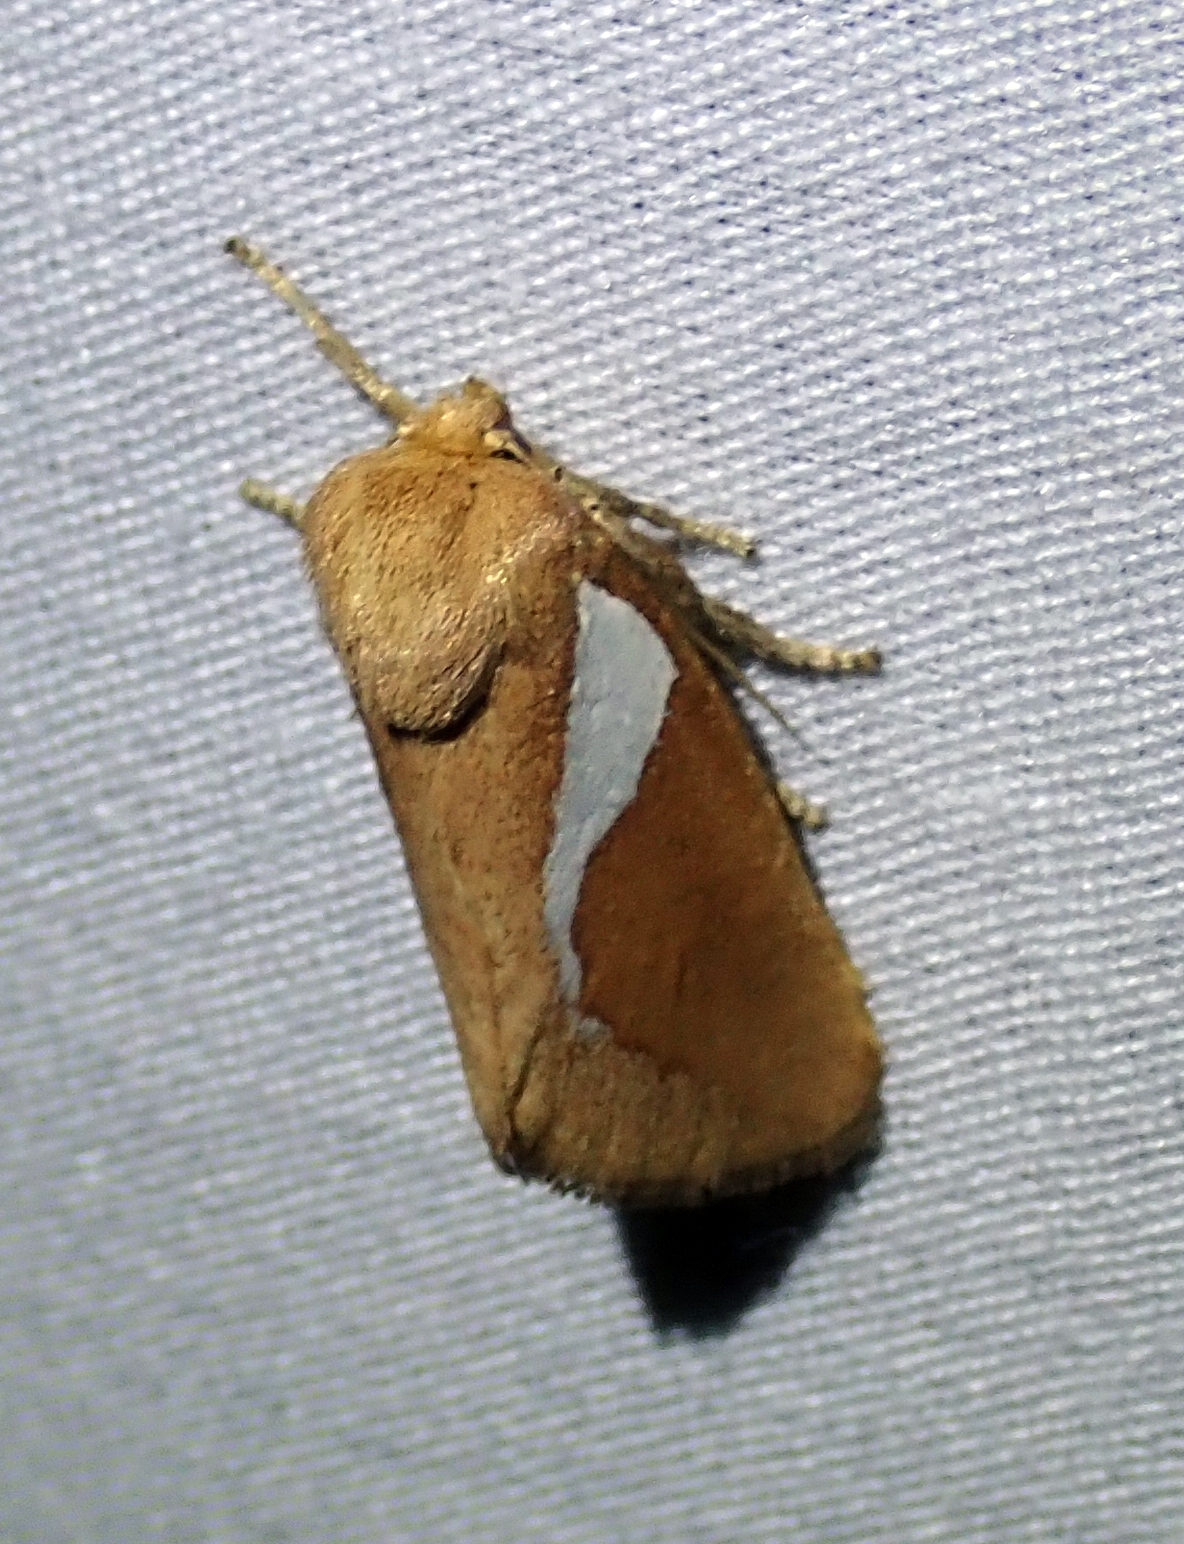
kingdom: Animalia
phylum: Arthropoda
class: Insecta
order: Lepidoptera
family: Limacodidae
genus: Prolimacodes
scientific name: Prolimacodes trigona
